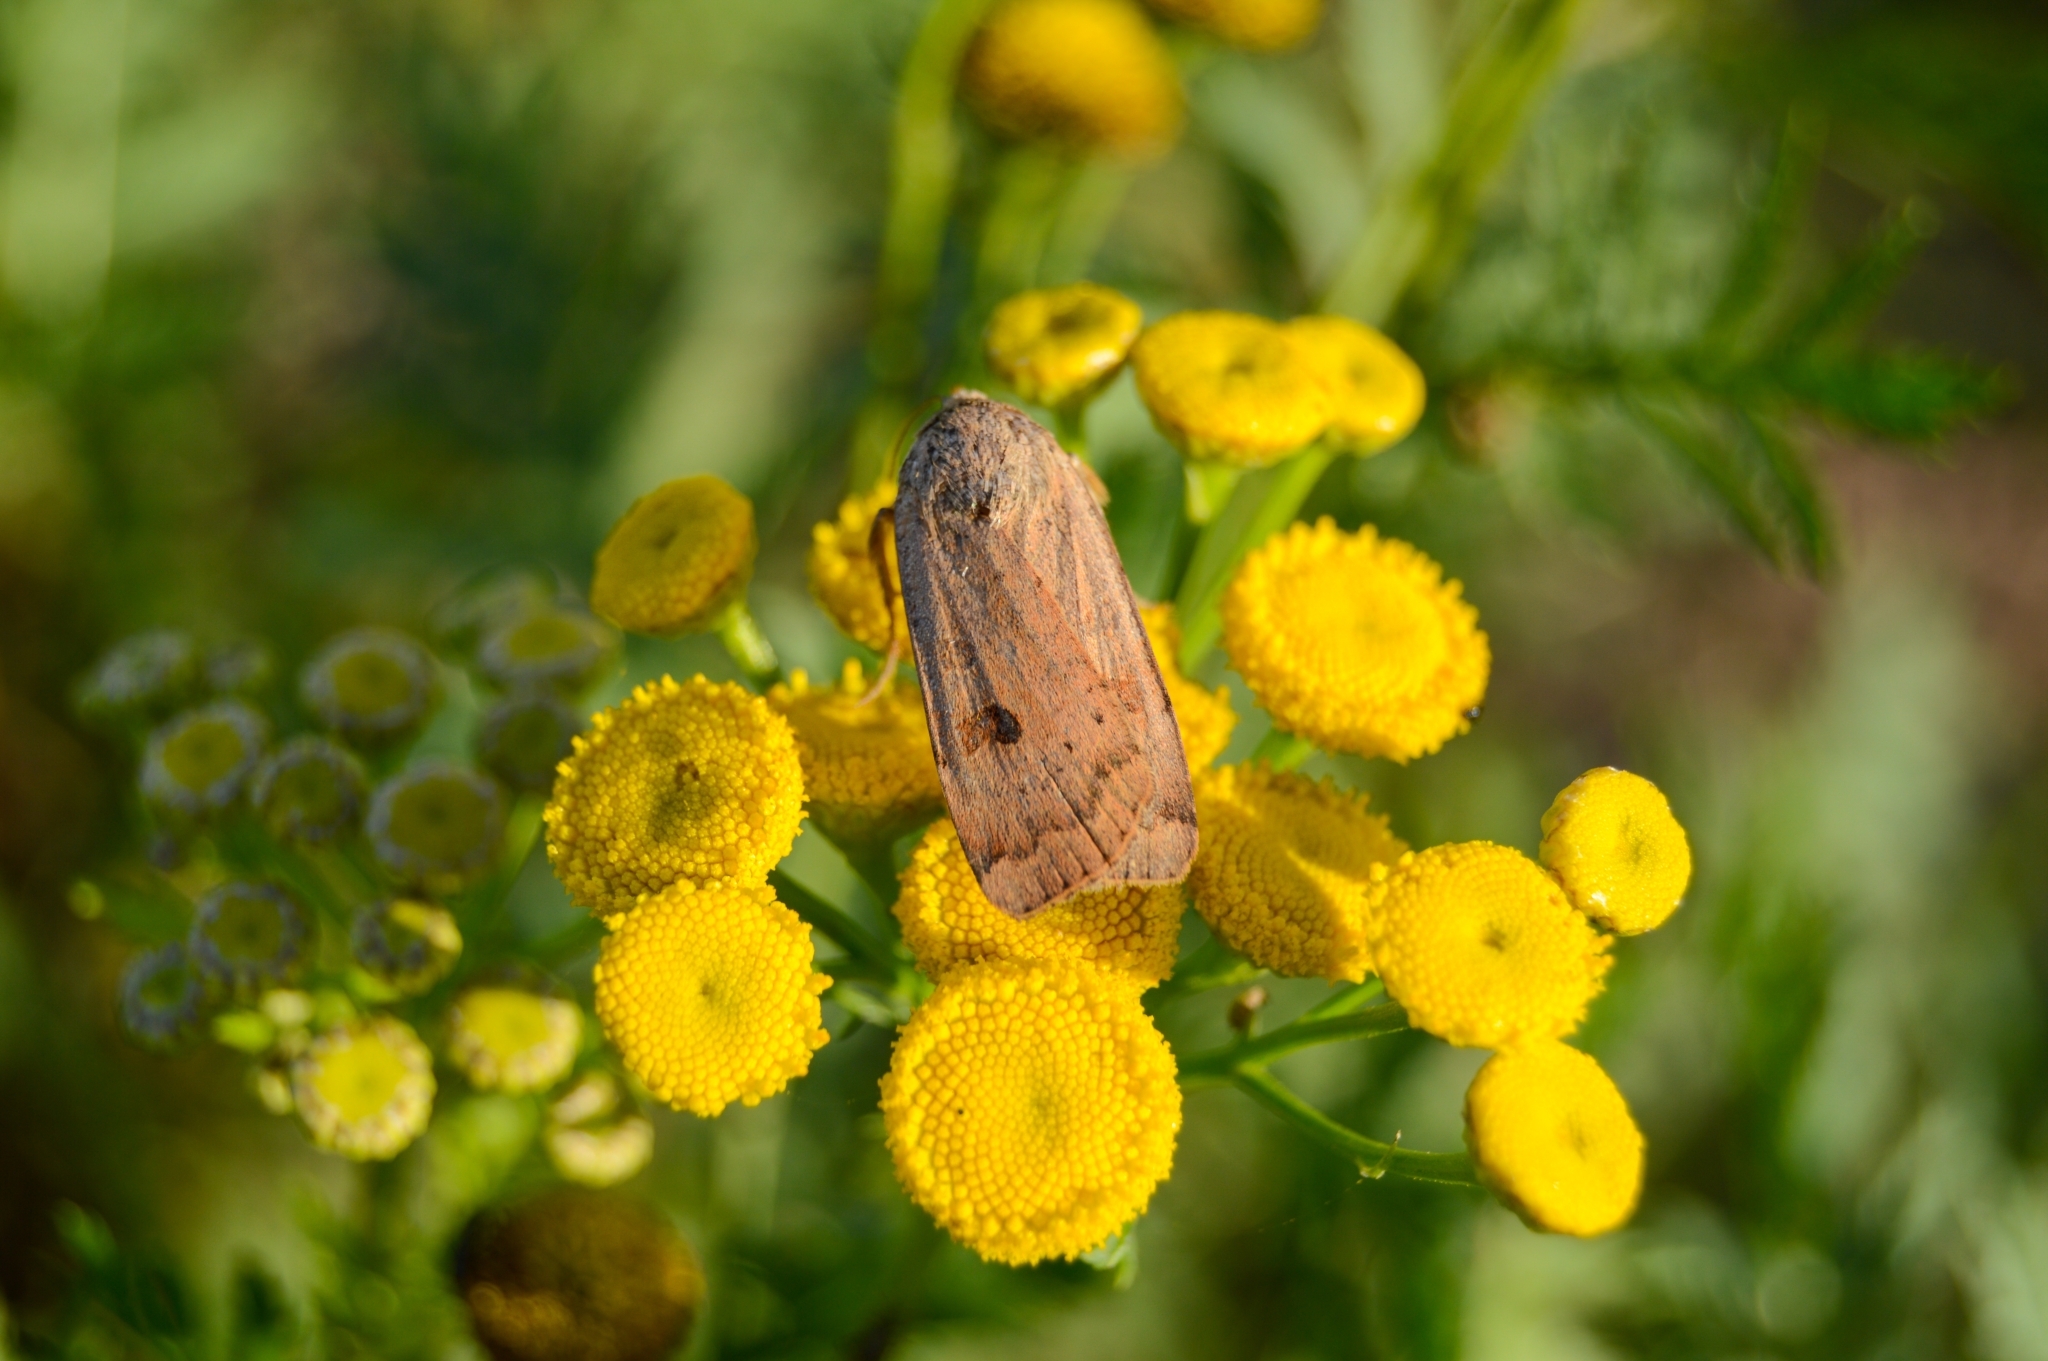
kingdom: Animalia
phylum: Arthropoda
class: Insecta
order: Lepidoptera
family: Noctuidae
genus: Noctua
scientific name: Noctua interposita
